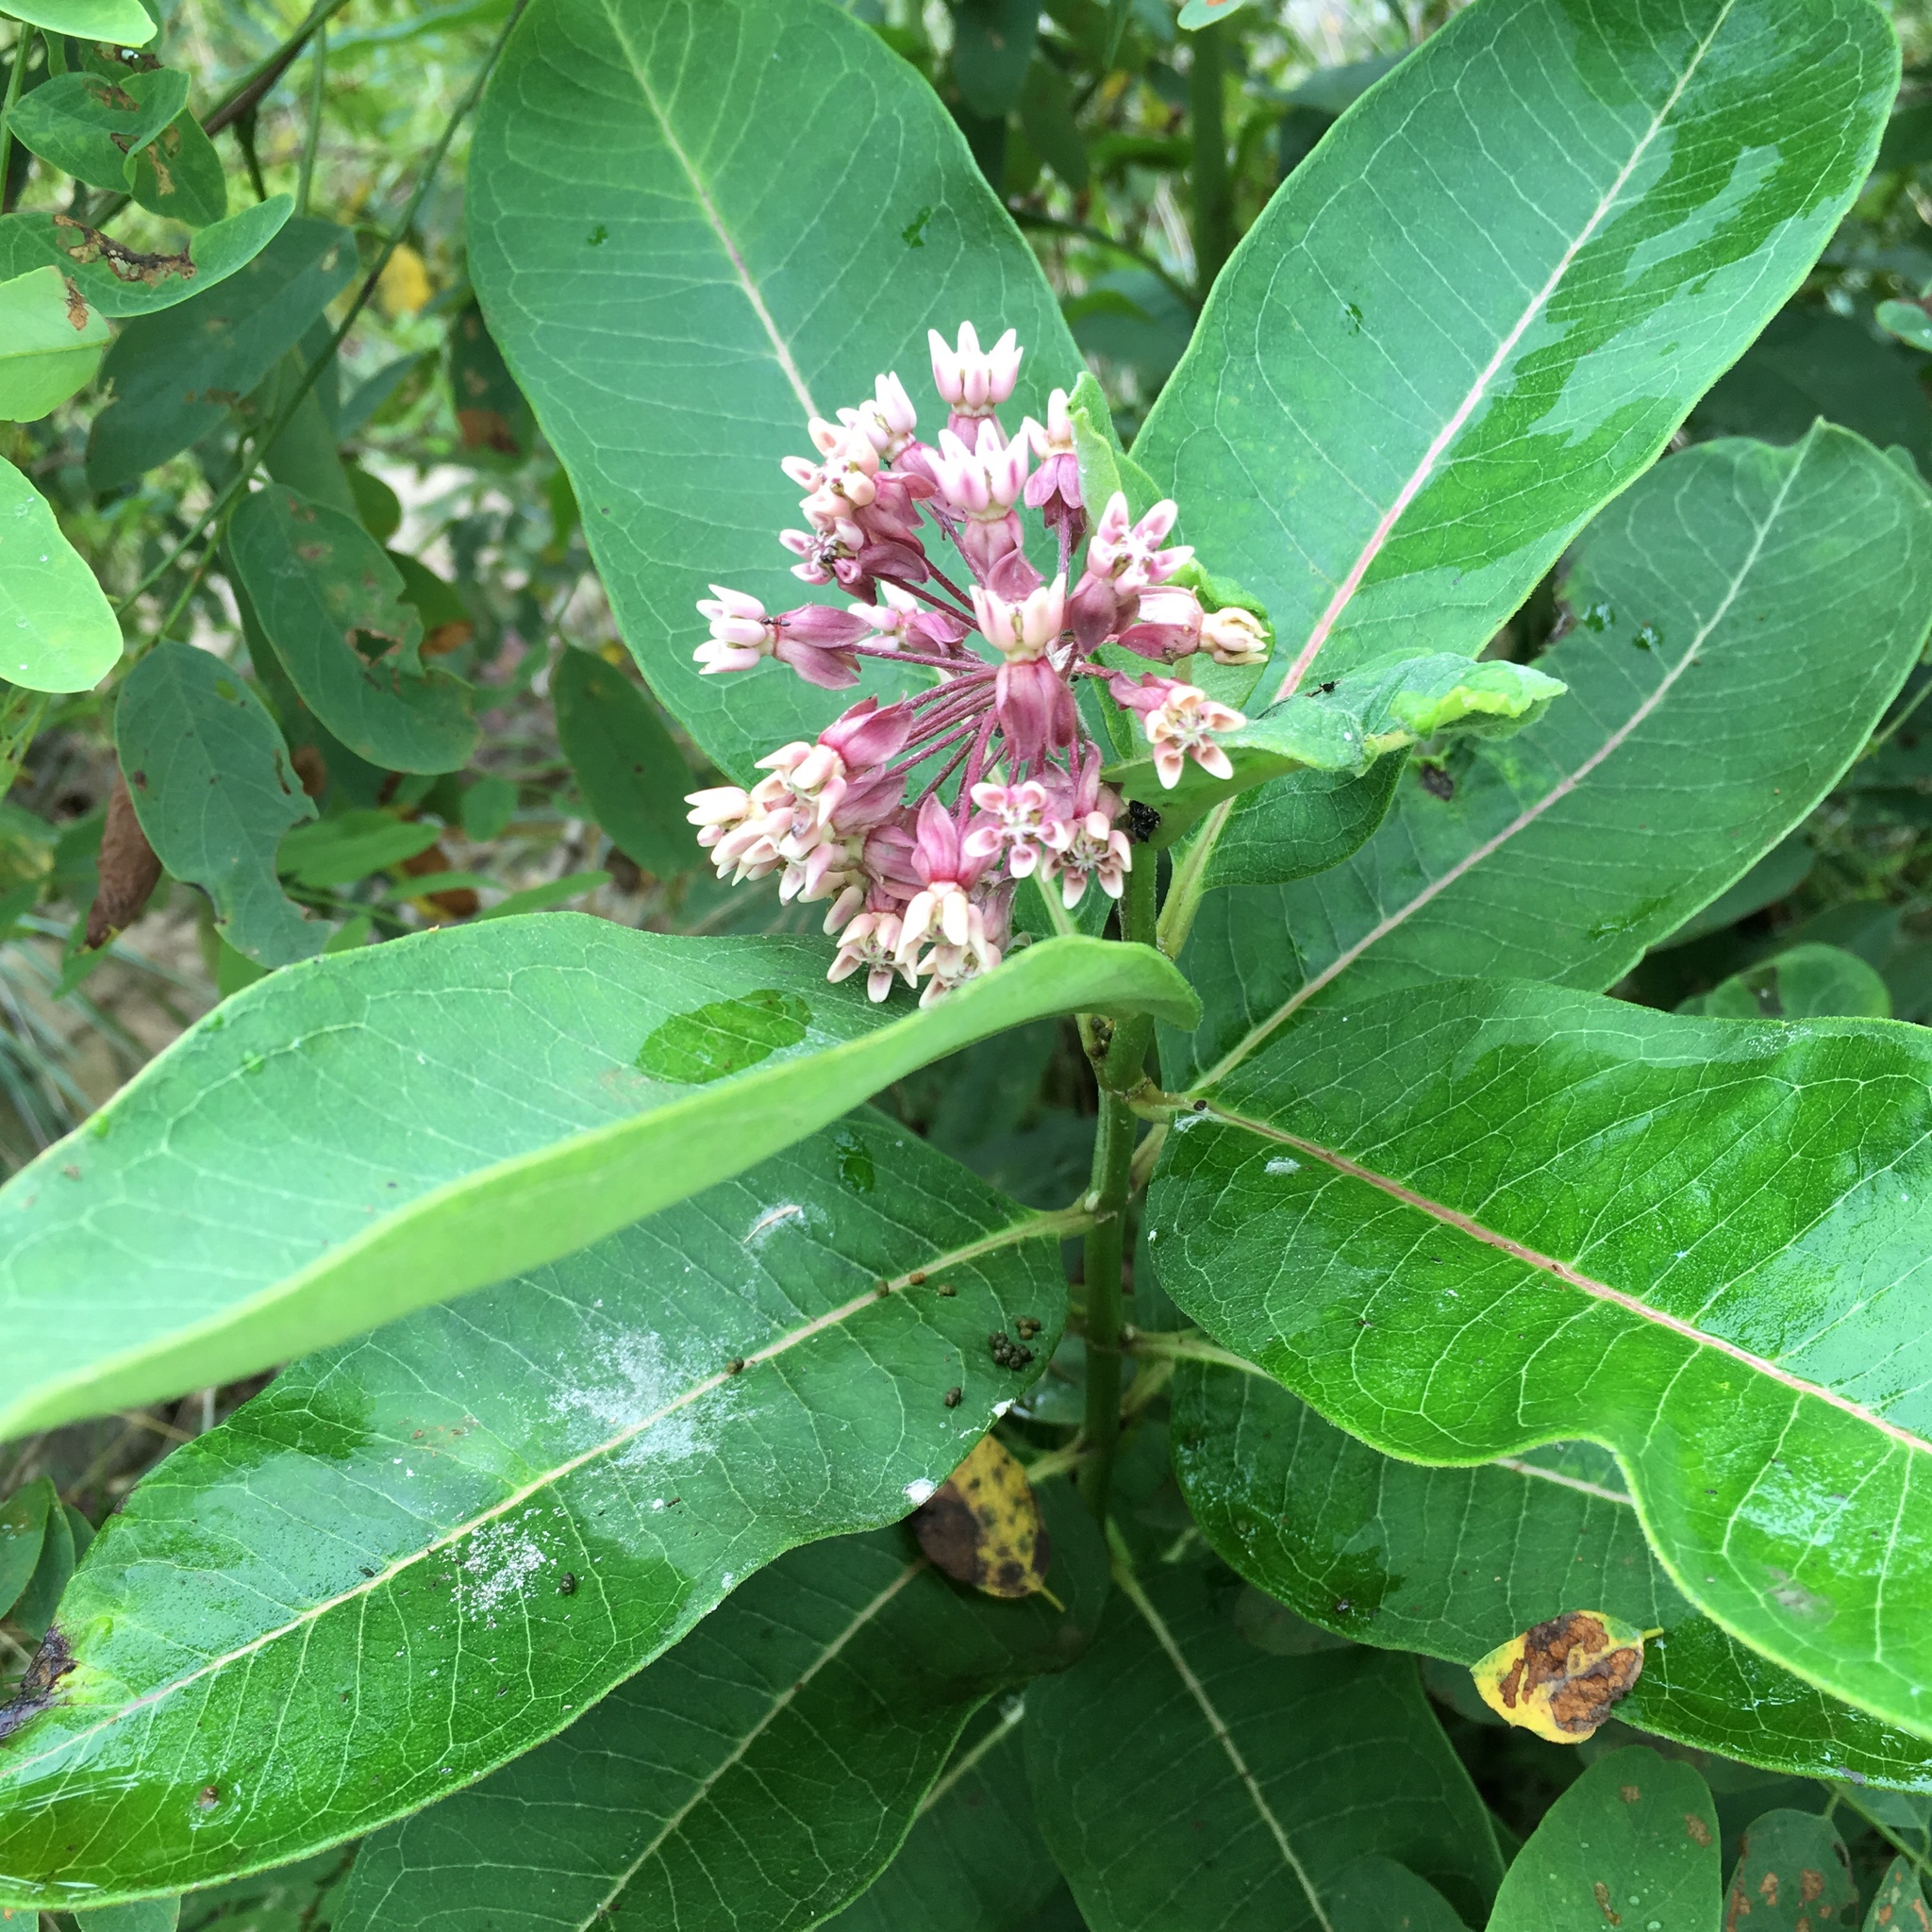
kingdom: Plantae
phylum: Tracheophyta
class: Magnoliopsida
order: Gentianales
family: Apocynaceae
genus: Asclepias
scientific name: Asclepias syriaca
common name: Common milkweed
